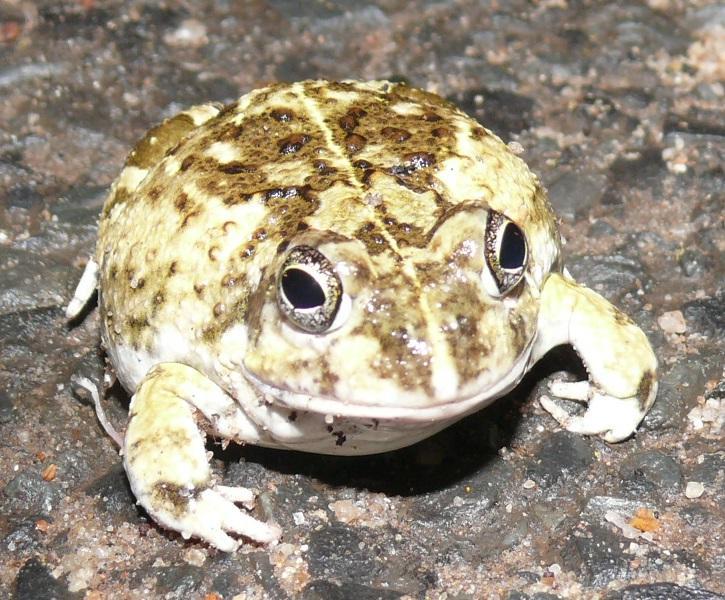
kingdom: Animalia
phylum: Chordata
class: Amphibia
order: Anura
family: Pyxicephalidae
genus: Tomopterna
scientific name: Tomopterna delalandii
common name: Delalande's burrowing bullfrog
